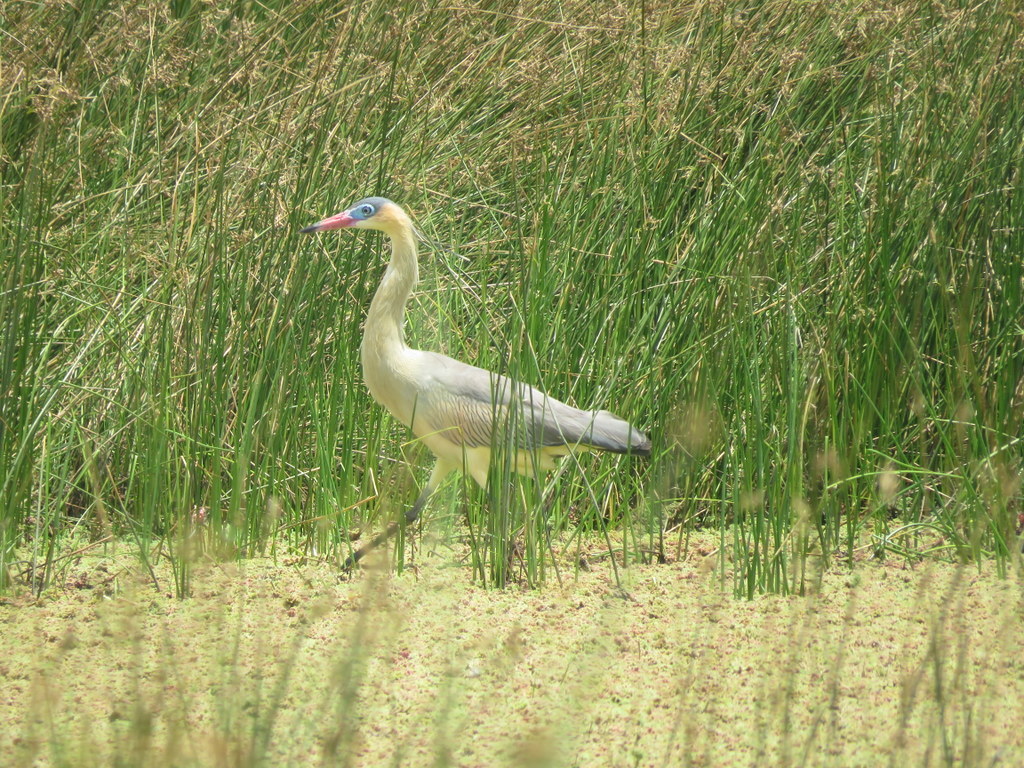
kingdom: Animalia
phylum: Chordata
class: Aves
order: Pelecaniformes
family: Ardeidae
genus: Syrigma
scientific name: Syrigma sibilatrix
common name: Whistling heron
